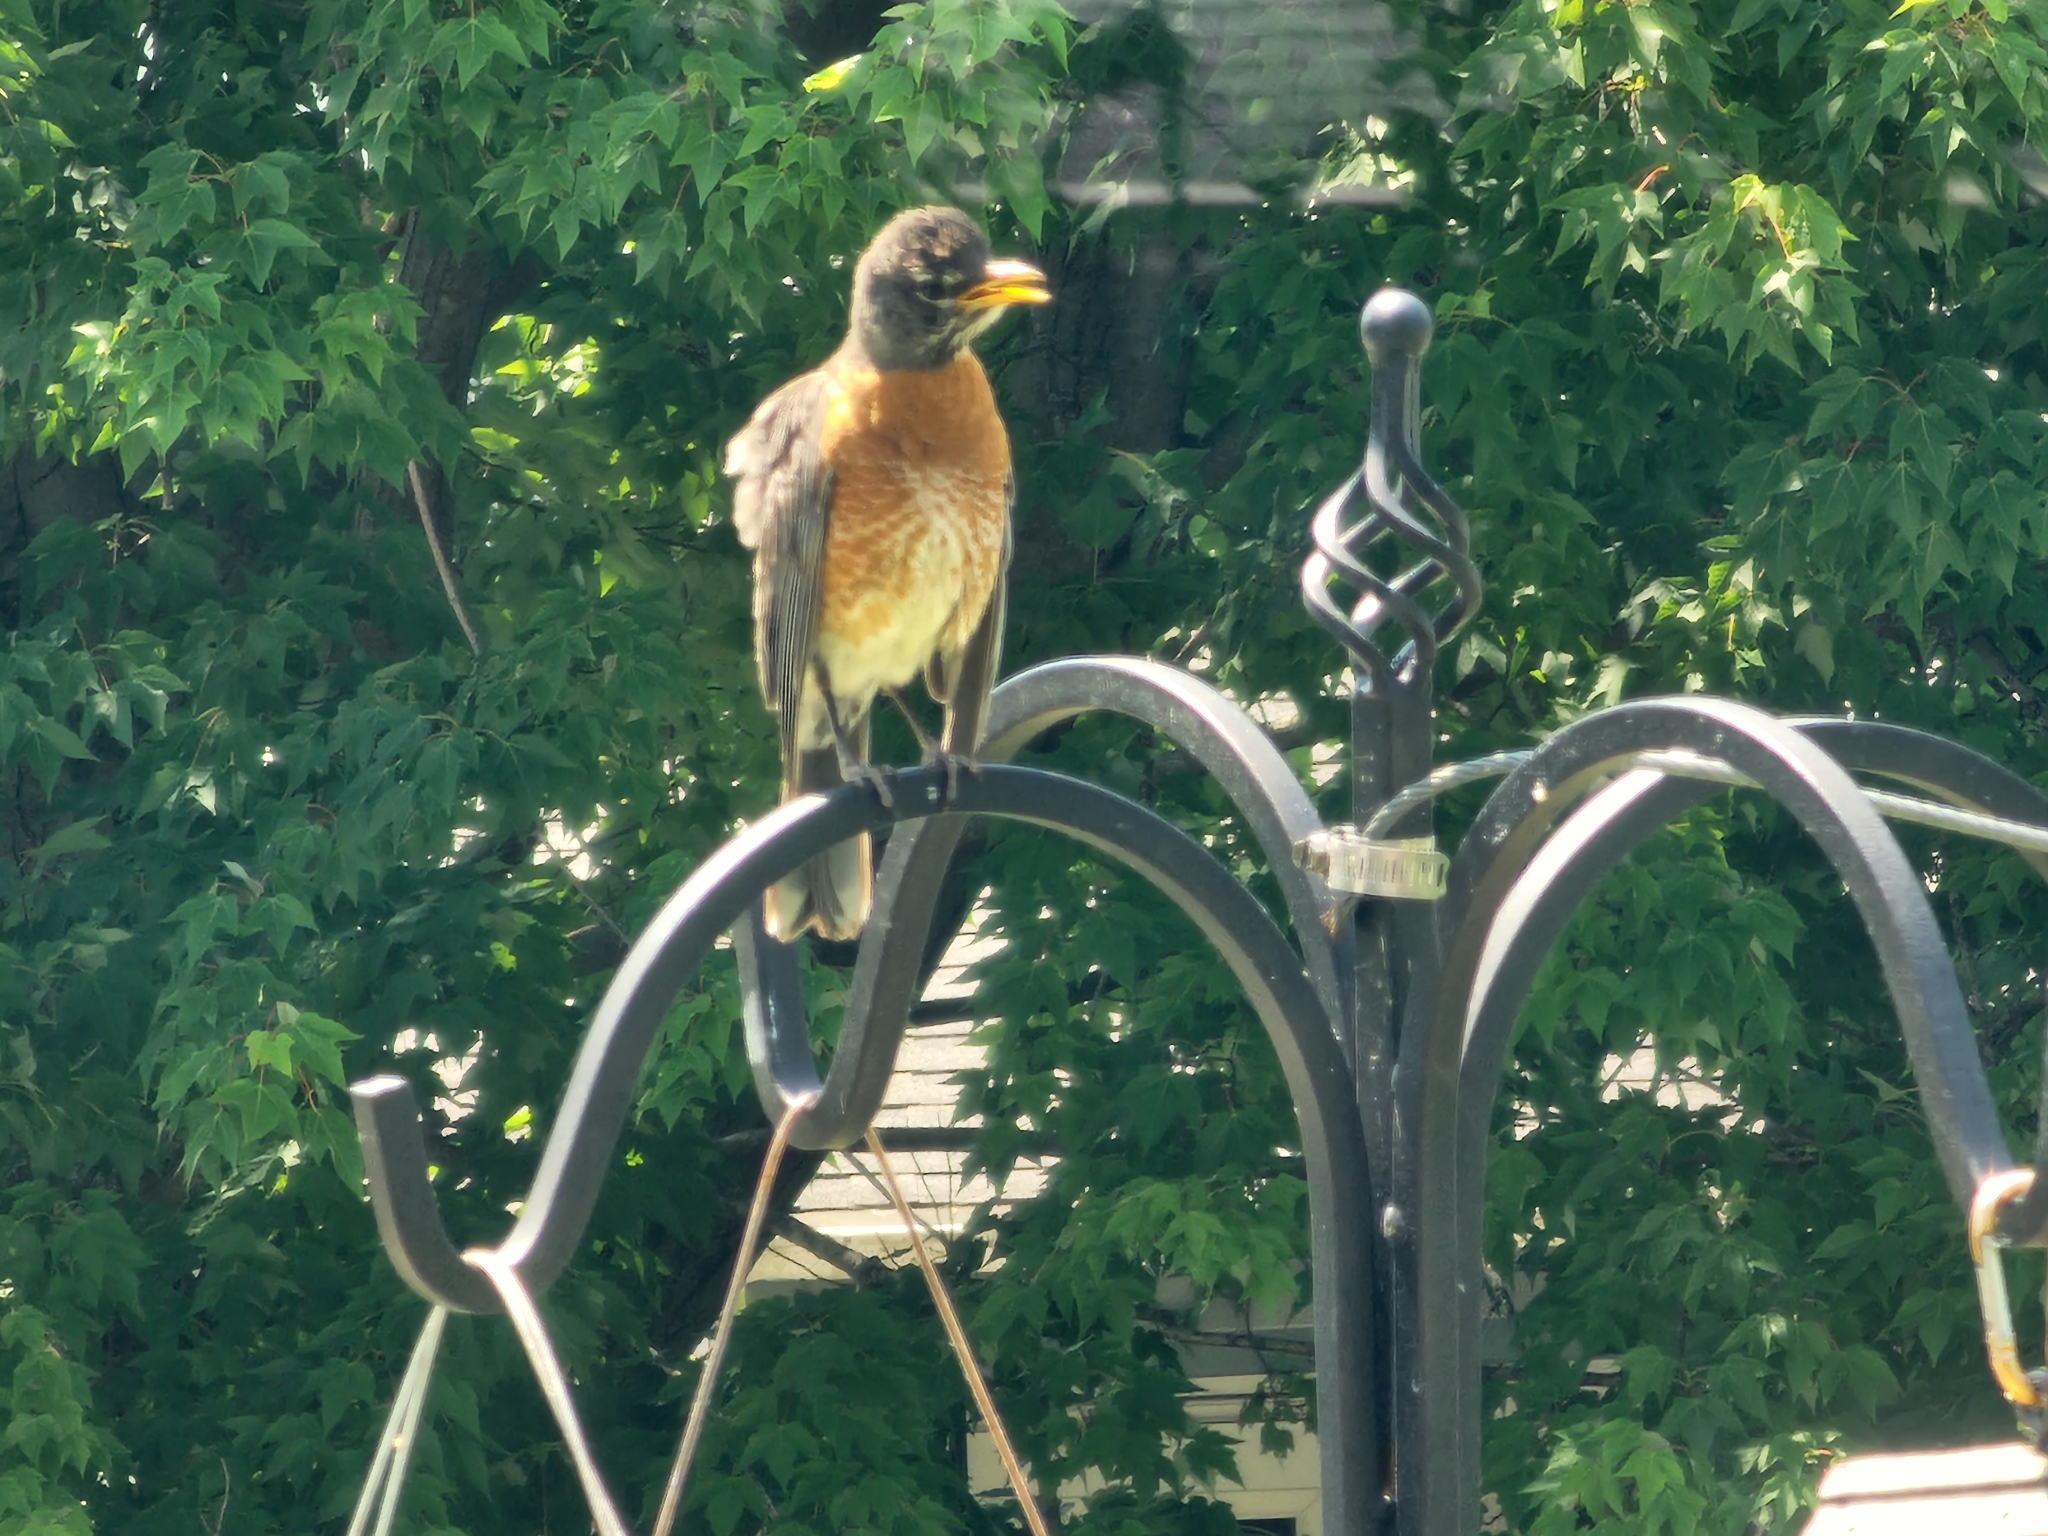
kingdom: Animalia
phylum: Chordata
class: Aves
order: Passeriformes
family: Turdidae
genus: Turdus
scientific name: Turdus migratorius
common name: American robin
